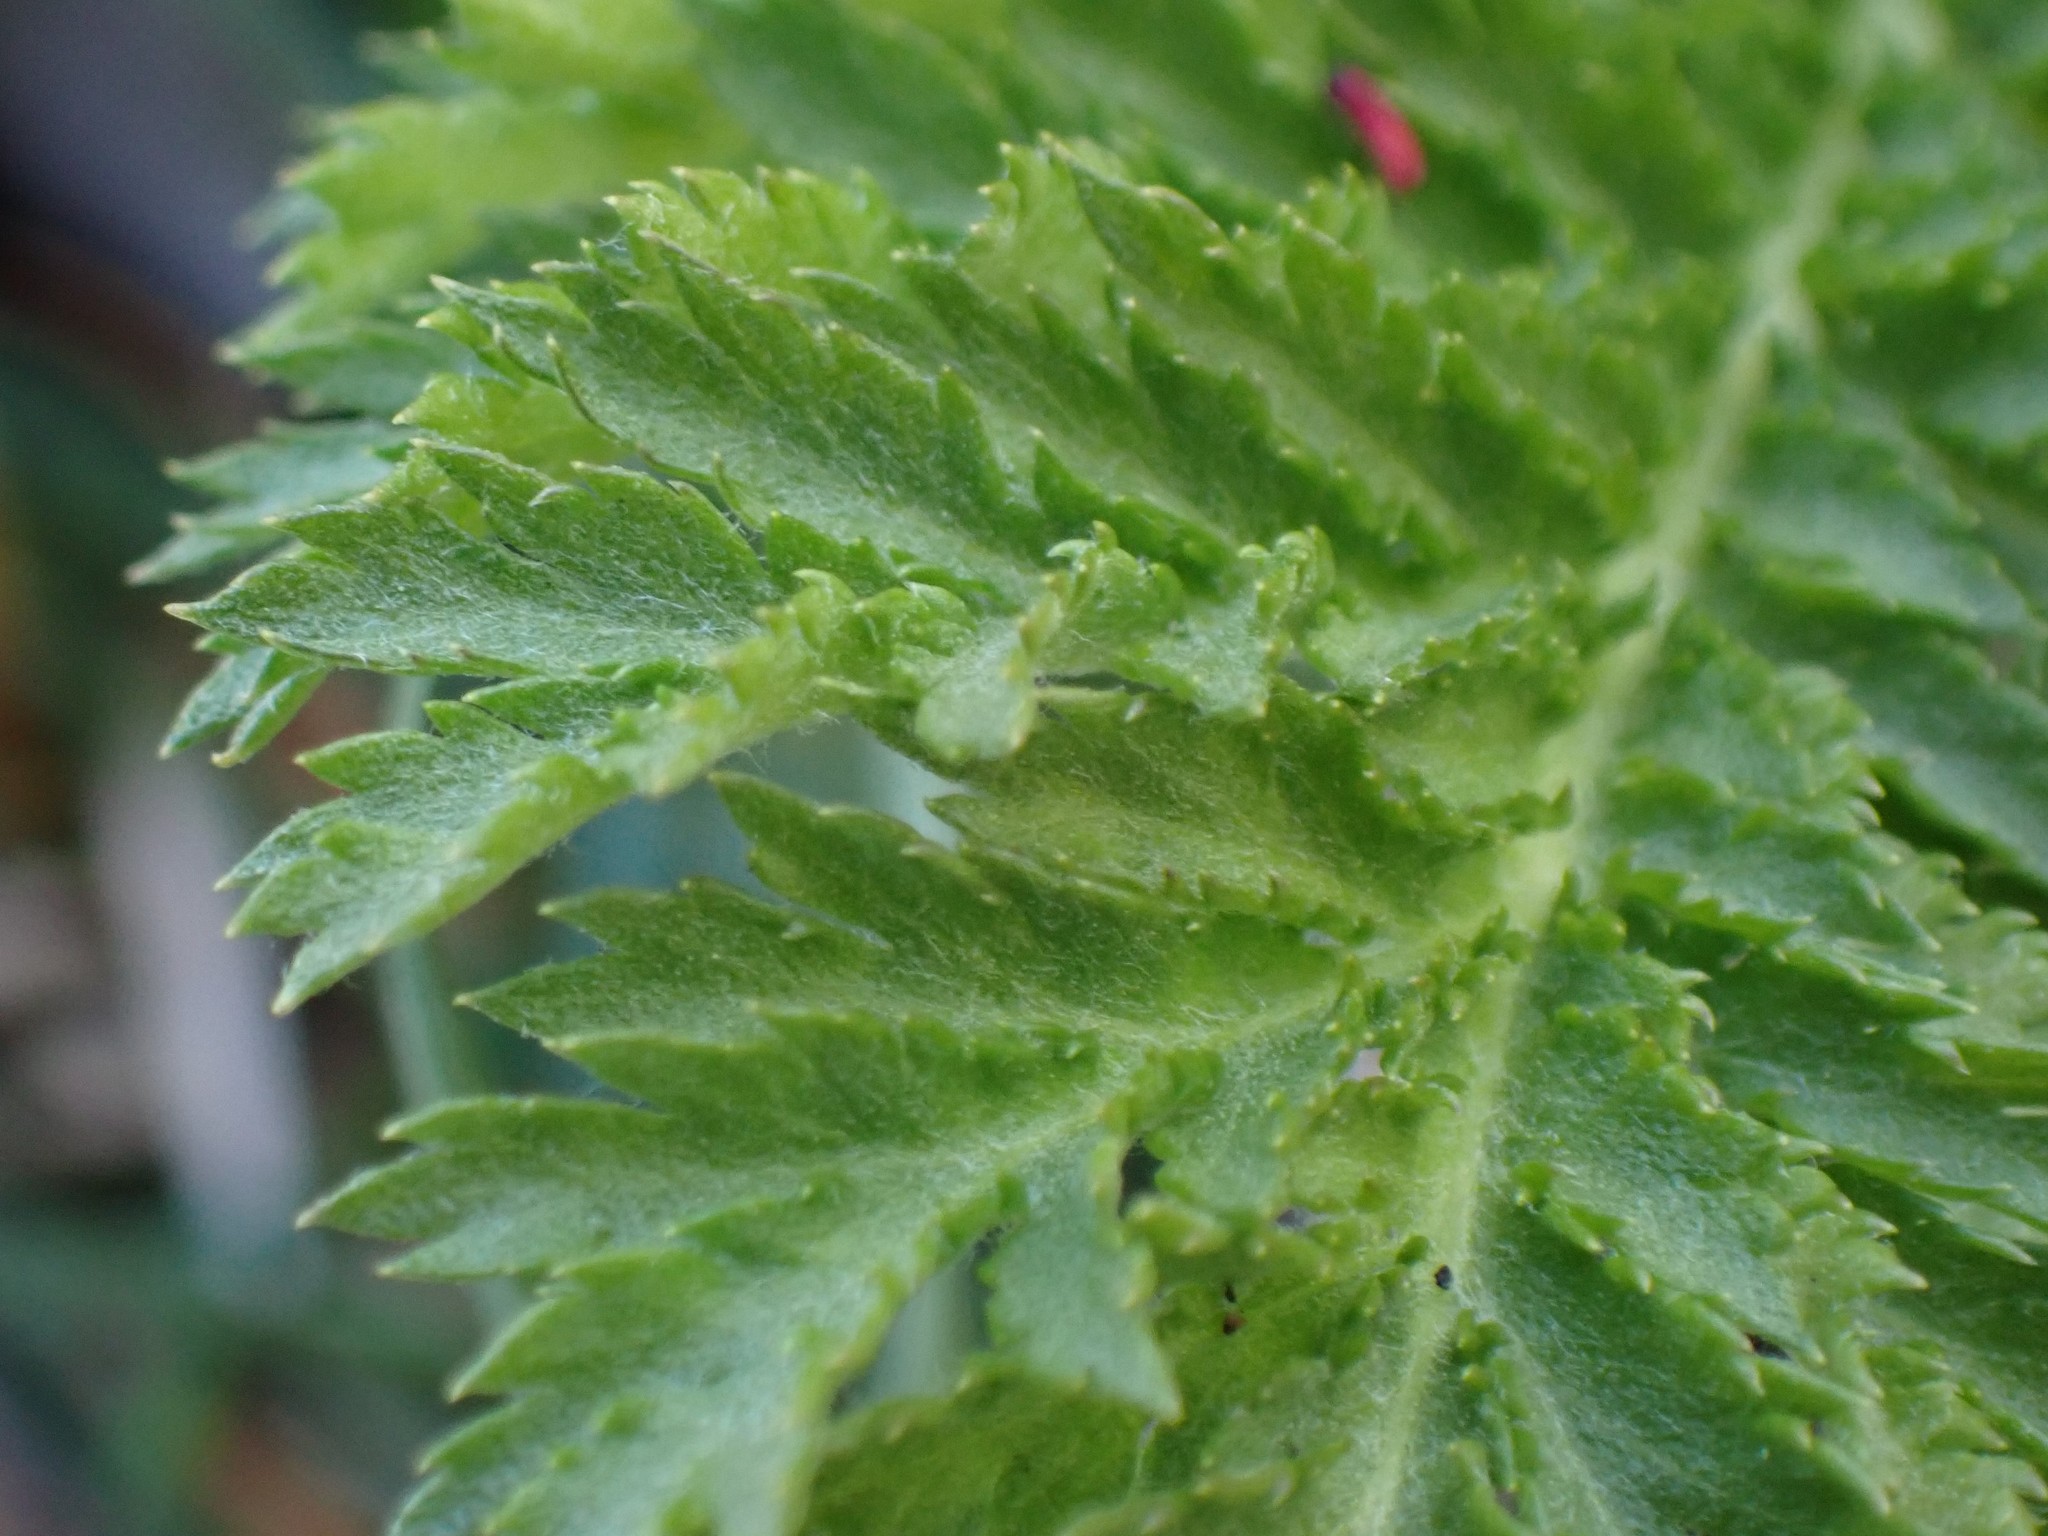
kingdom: Plantae
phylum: Tracheophyta
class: Magnoliopsida
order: Asterales
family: Asteraceae
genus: Tanacetum
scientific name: Tanacetum vulgare
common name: Common tansy
